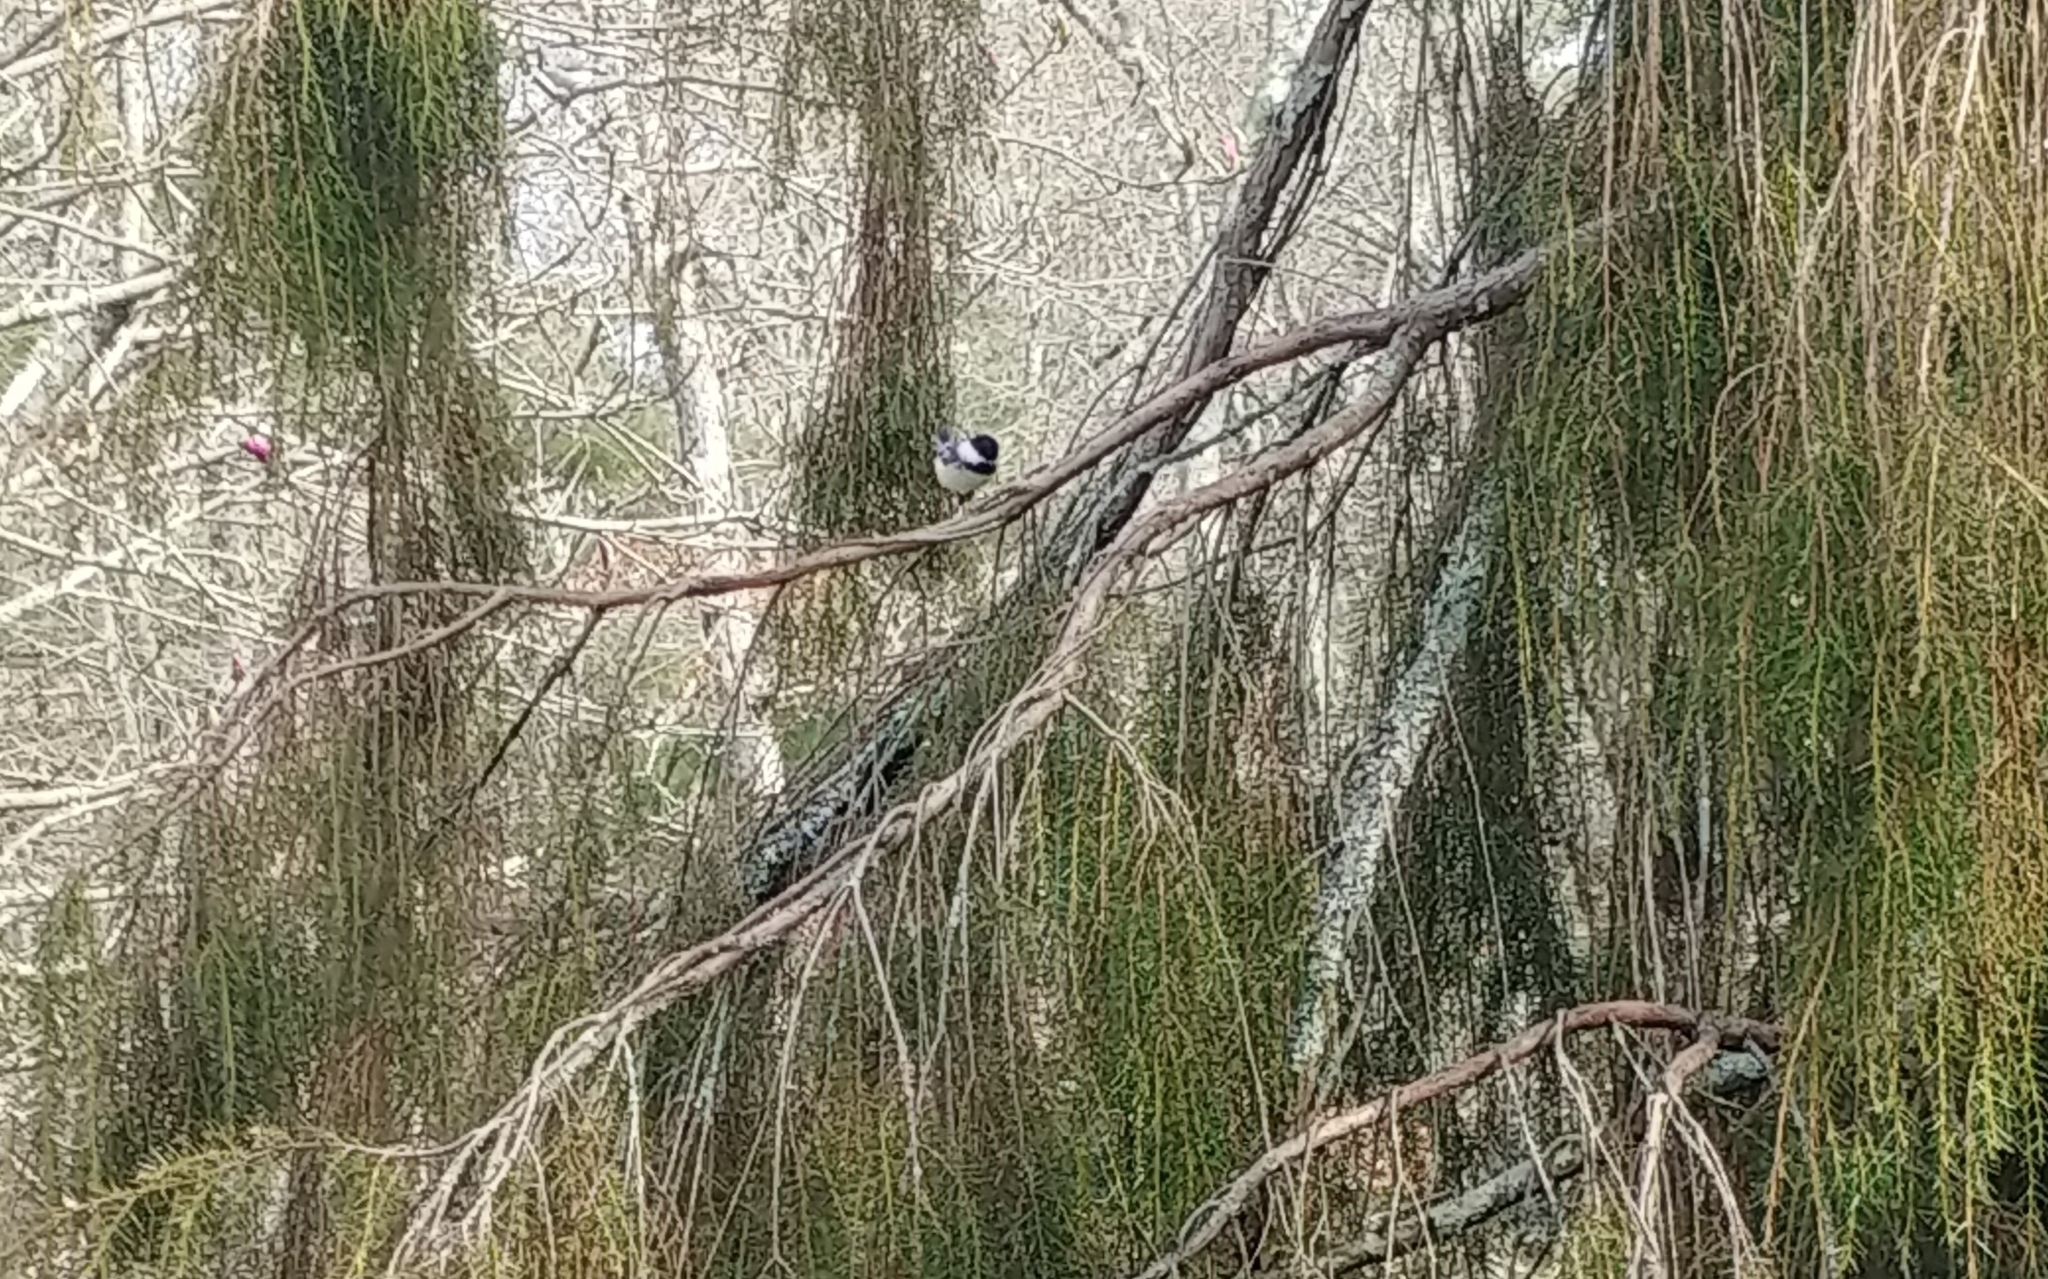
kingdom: Animalia
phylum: Chordata
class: Aves
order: Passeriformes
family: Paridae
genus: Poecile
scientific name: Poecile atricapillus
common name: Black-capped chickadee
